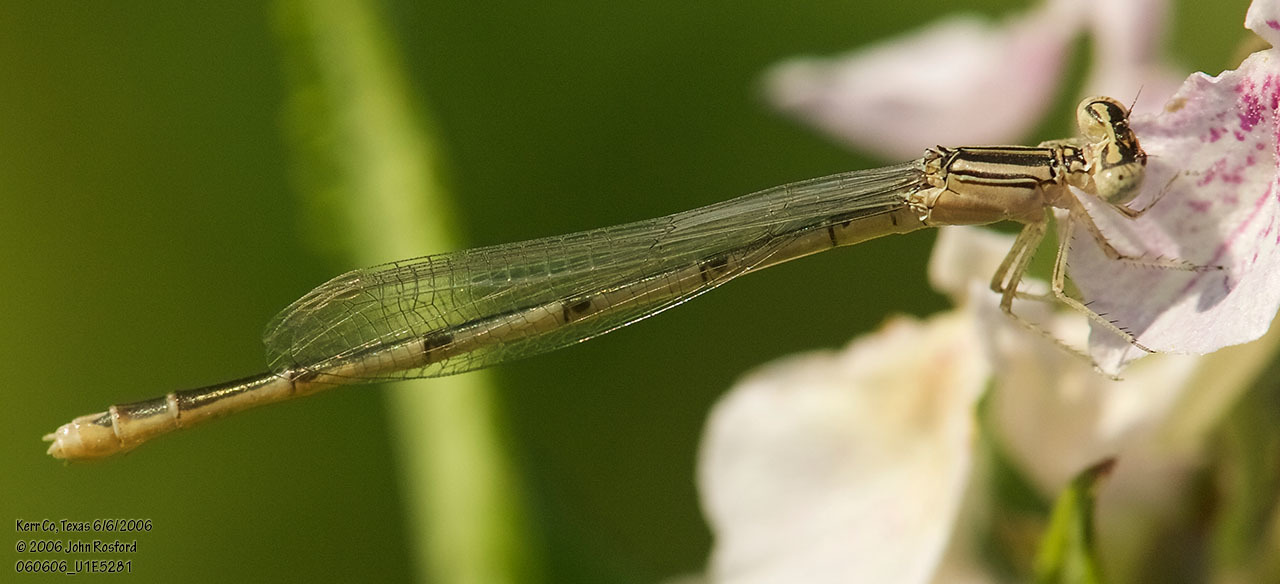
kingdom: Animalia
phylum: Arthropoda
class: Insecta
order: Odonata
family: Coenagrionidae
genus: Enallagma
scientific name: Enallagma basidens
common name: Double-striped bluet
